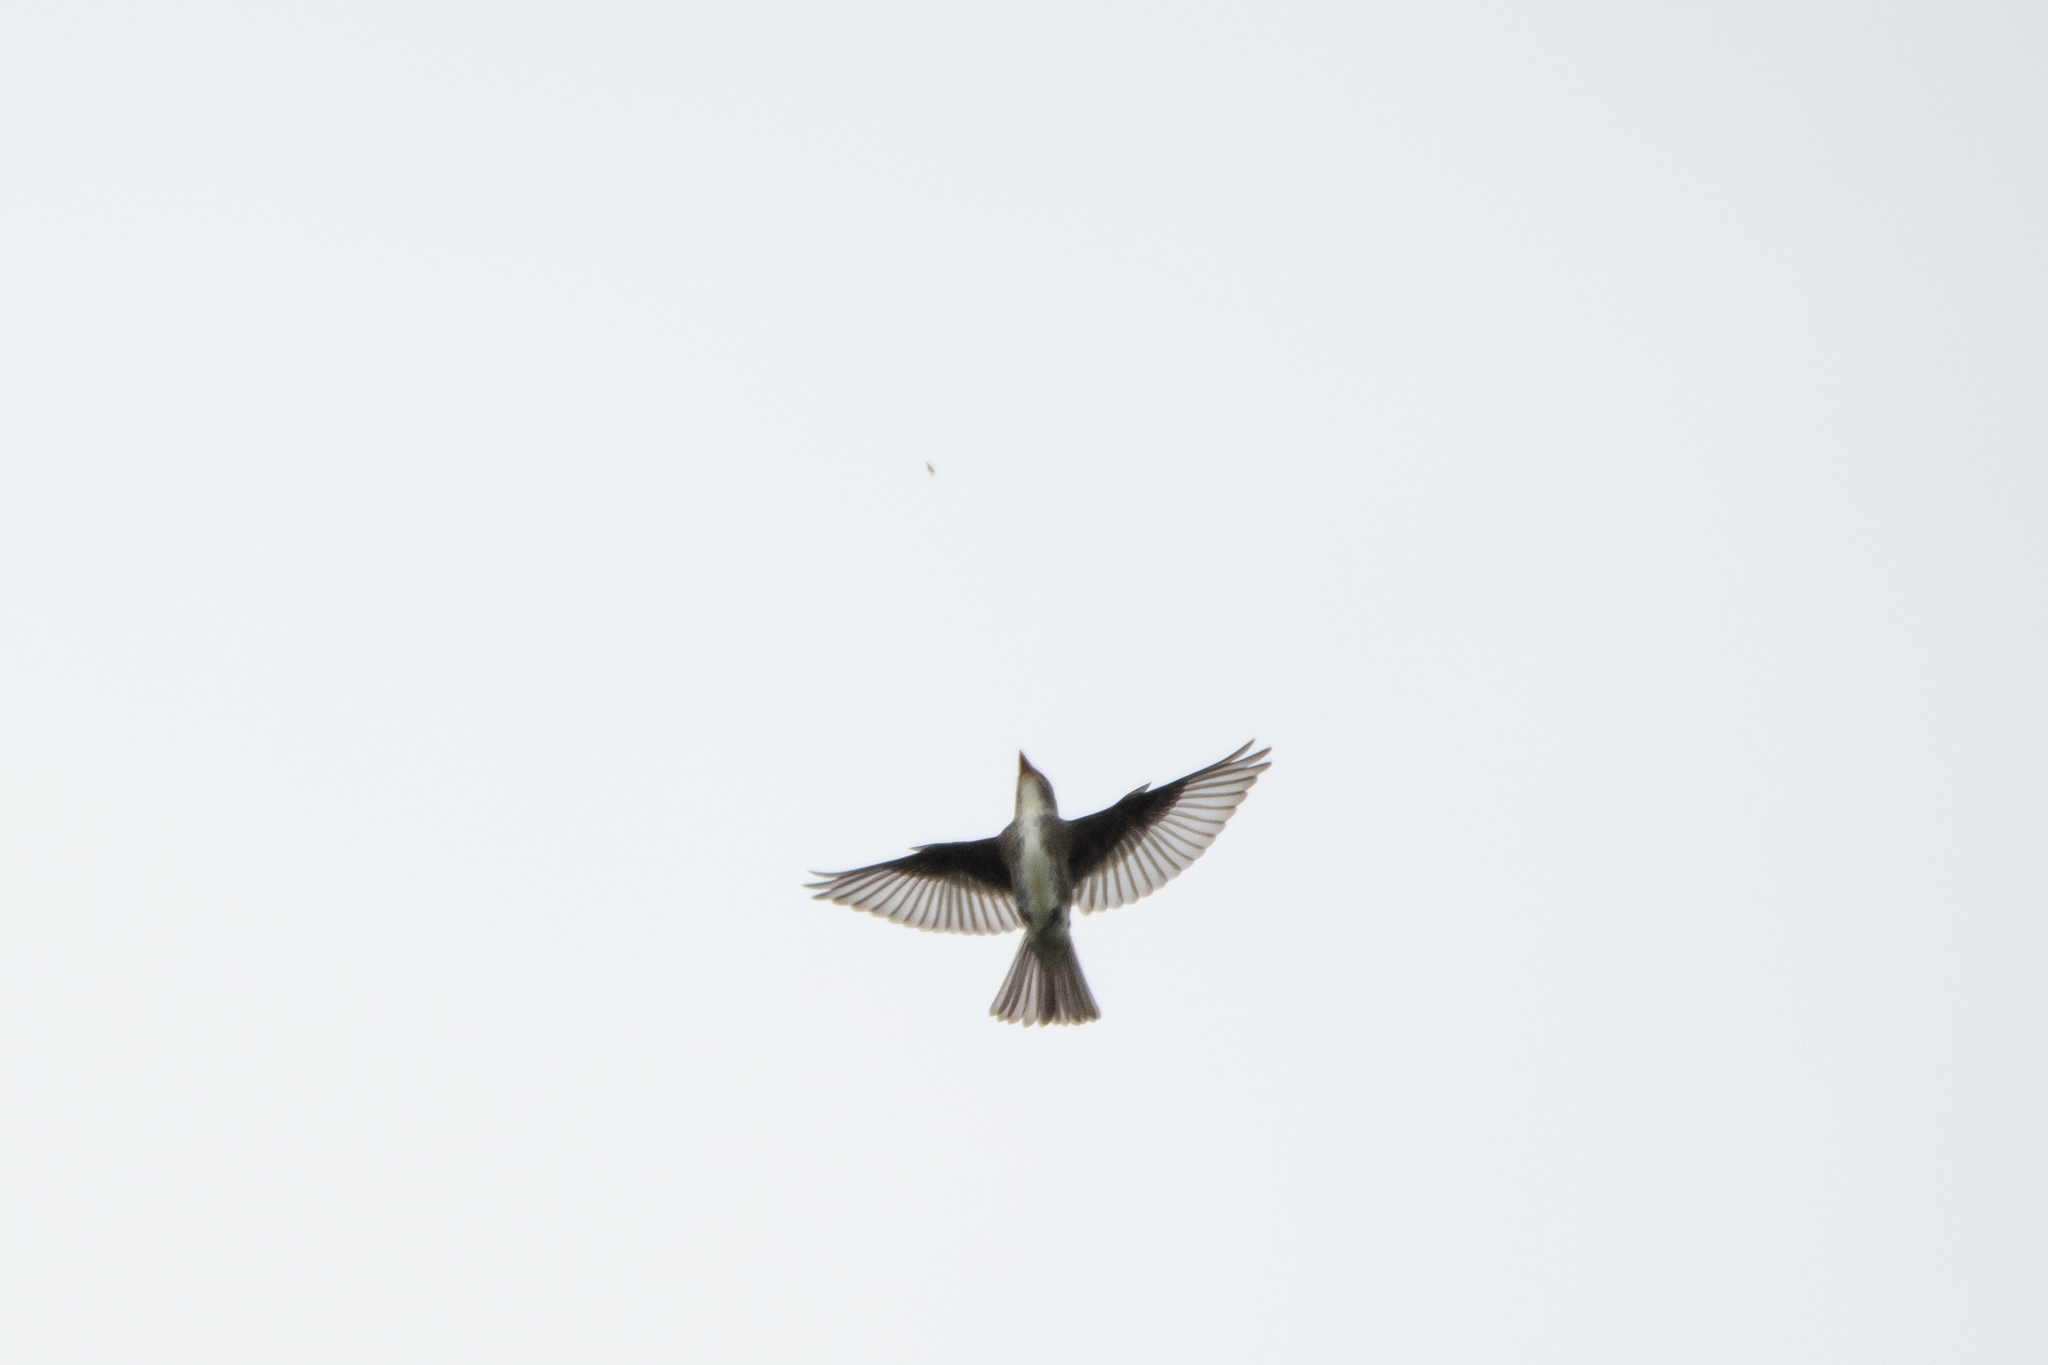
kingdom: Animalia
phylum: Chordata
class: Aves
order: Passeriformes
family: Tyrannidae
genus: Contopus
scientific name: Contopus cooperi
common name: Olive-sided flycatcher
